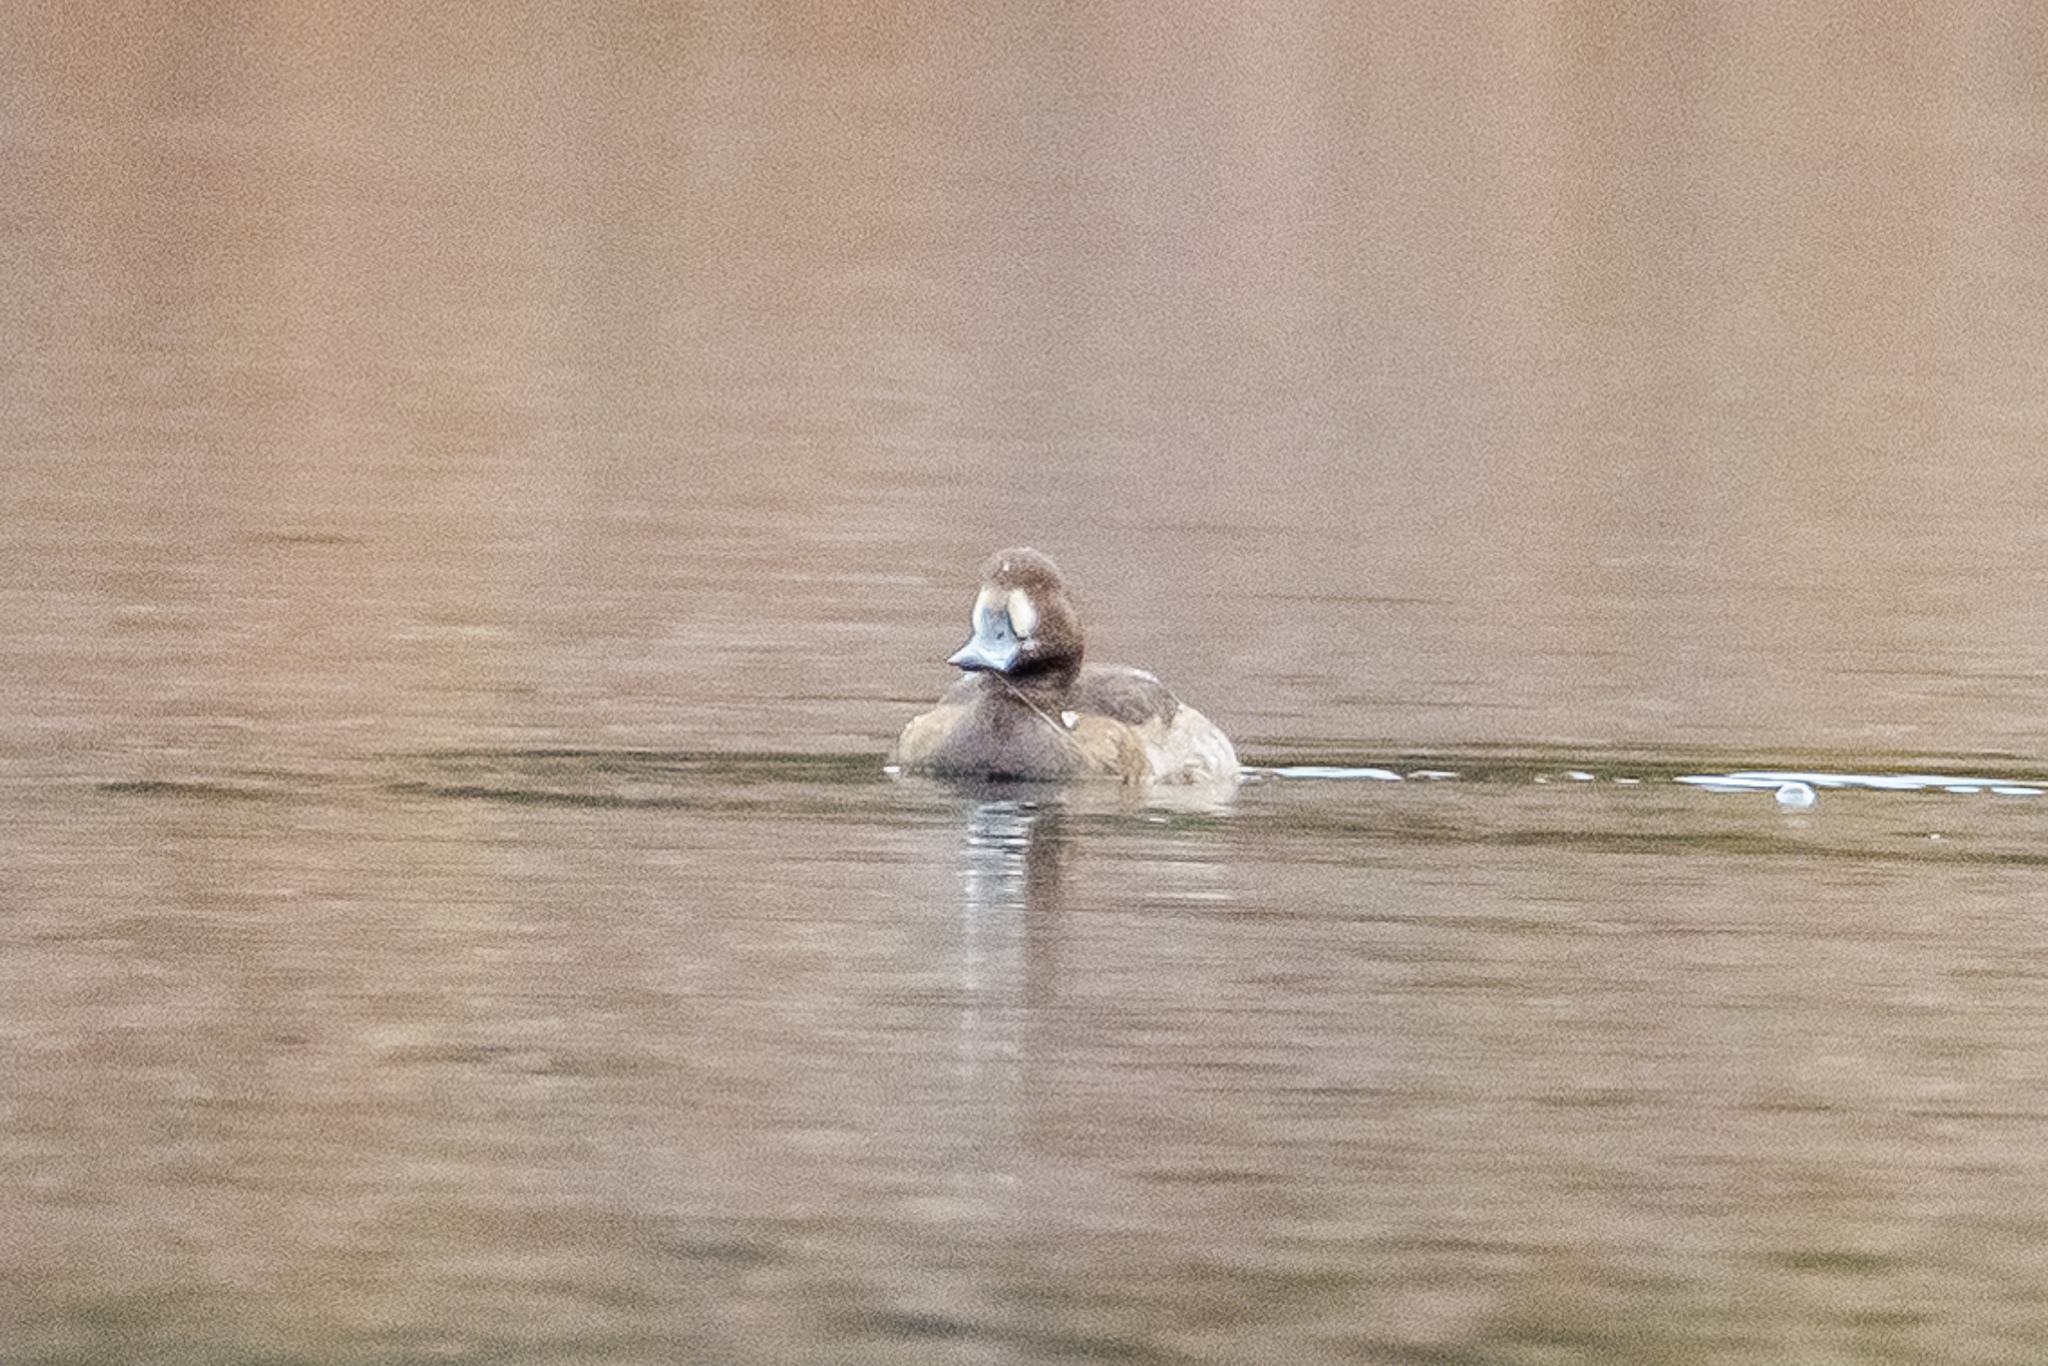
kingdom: Animalia
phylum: Chordata
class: Aves
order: Anseriformes
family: Anatidae
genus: Aythya
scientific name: Aythya marila
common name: Greater scaup
